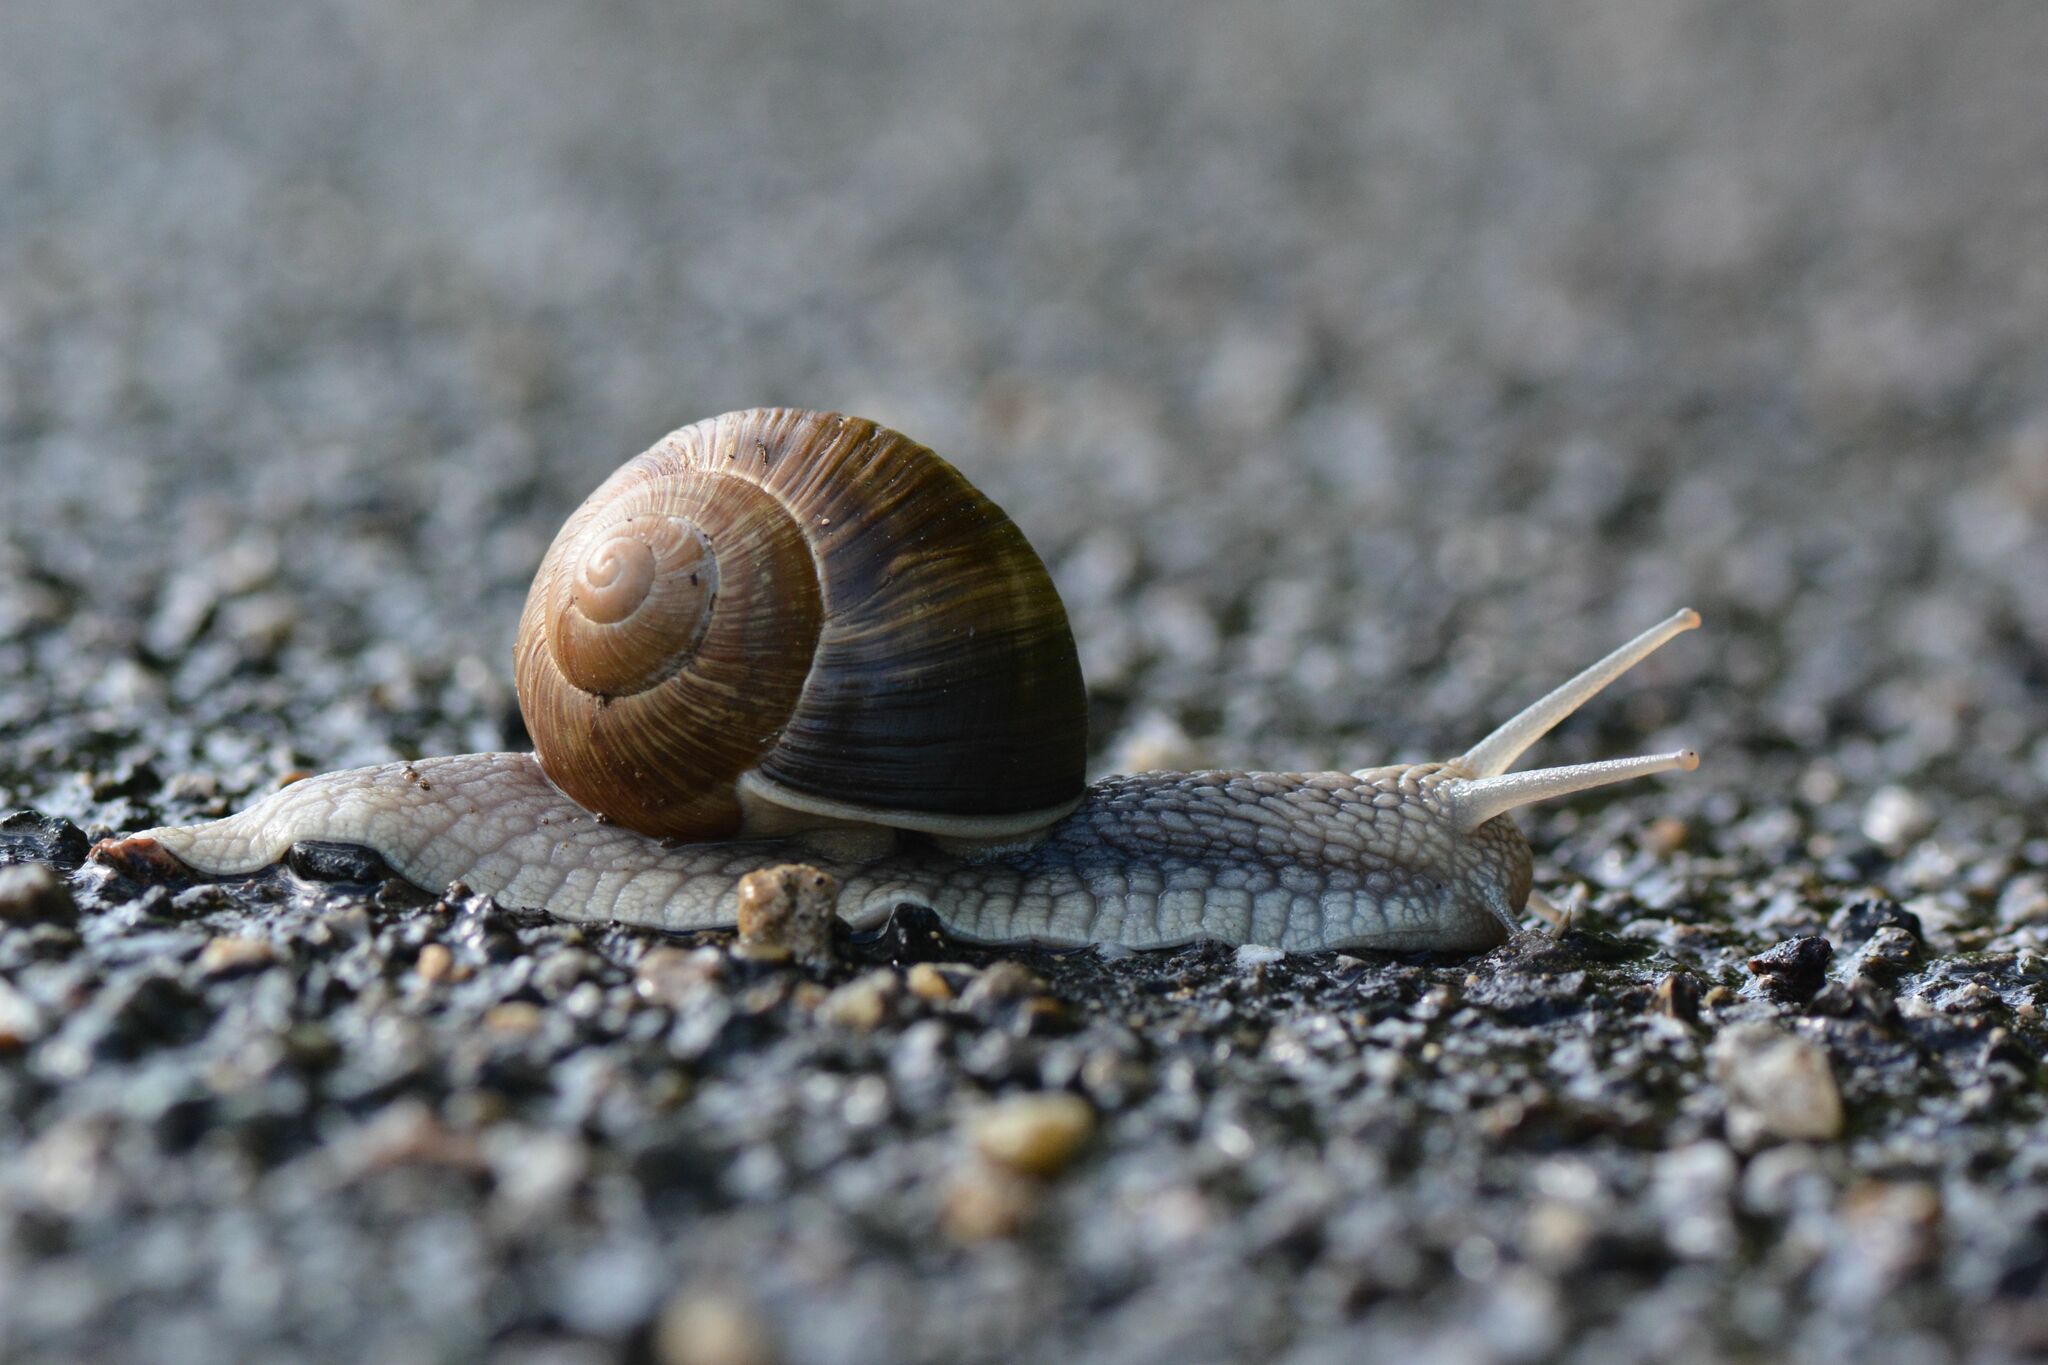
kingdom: Animalia
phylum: Mollusca
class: Gastropoda
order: Stylommatophora
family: Helicidae
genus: Helix
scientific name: Helix pomatia
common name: Roman snail
